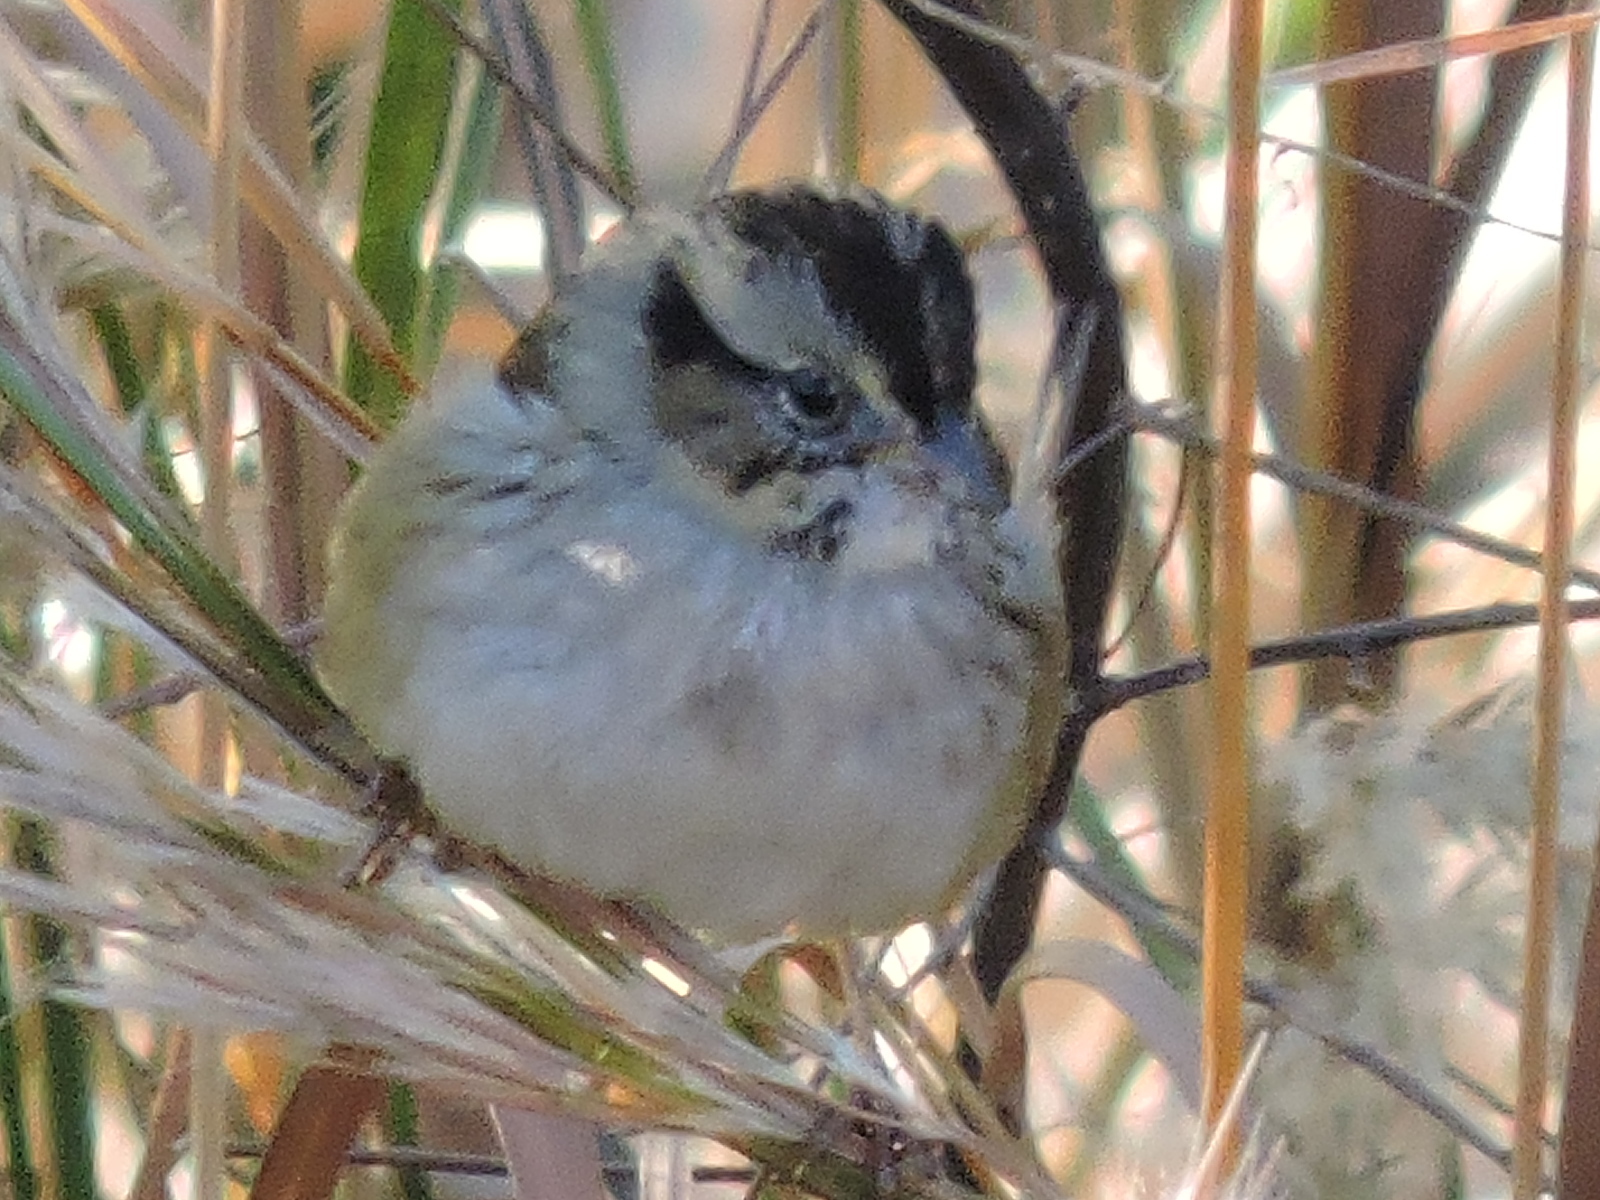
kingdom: Animalia
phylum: Chordata
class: Aves
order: Passeriformes
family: Passerellidae
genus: Melospiza
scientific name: Melospiza georgiana
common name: Swamp sparrow
